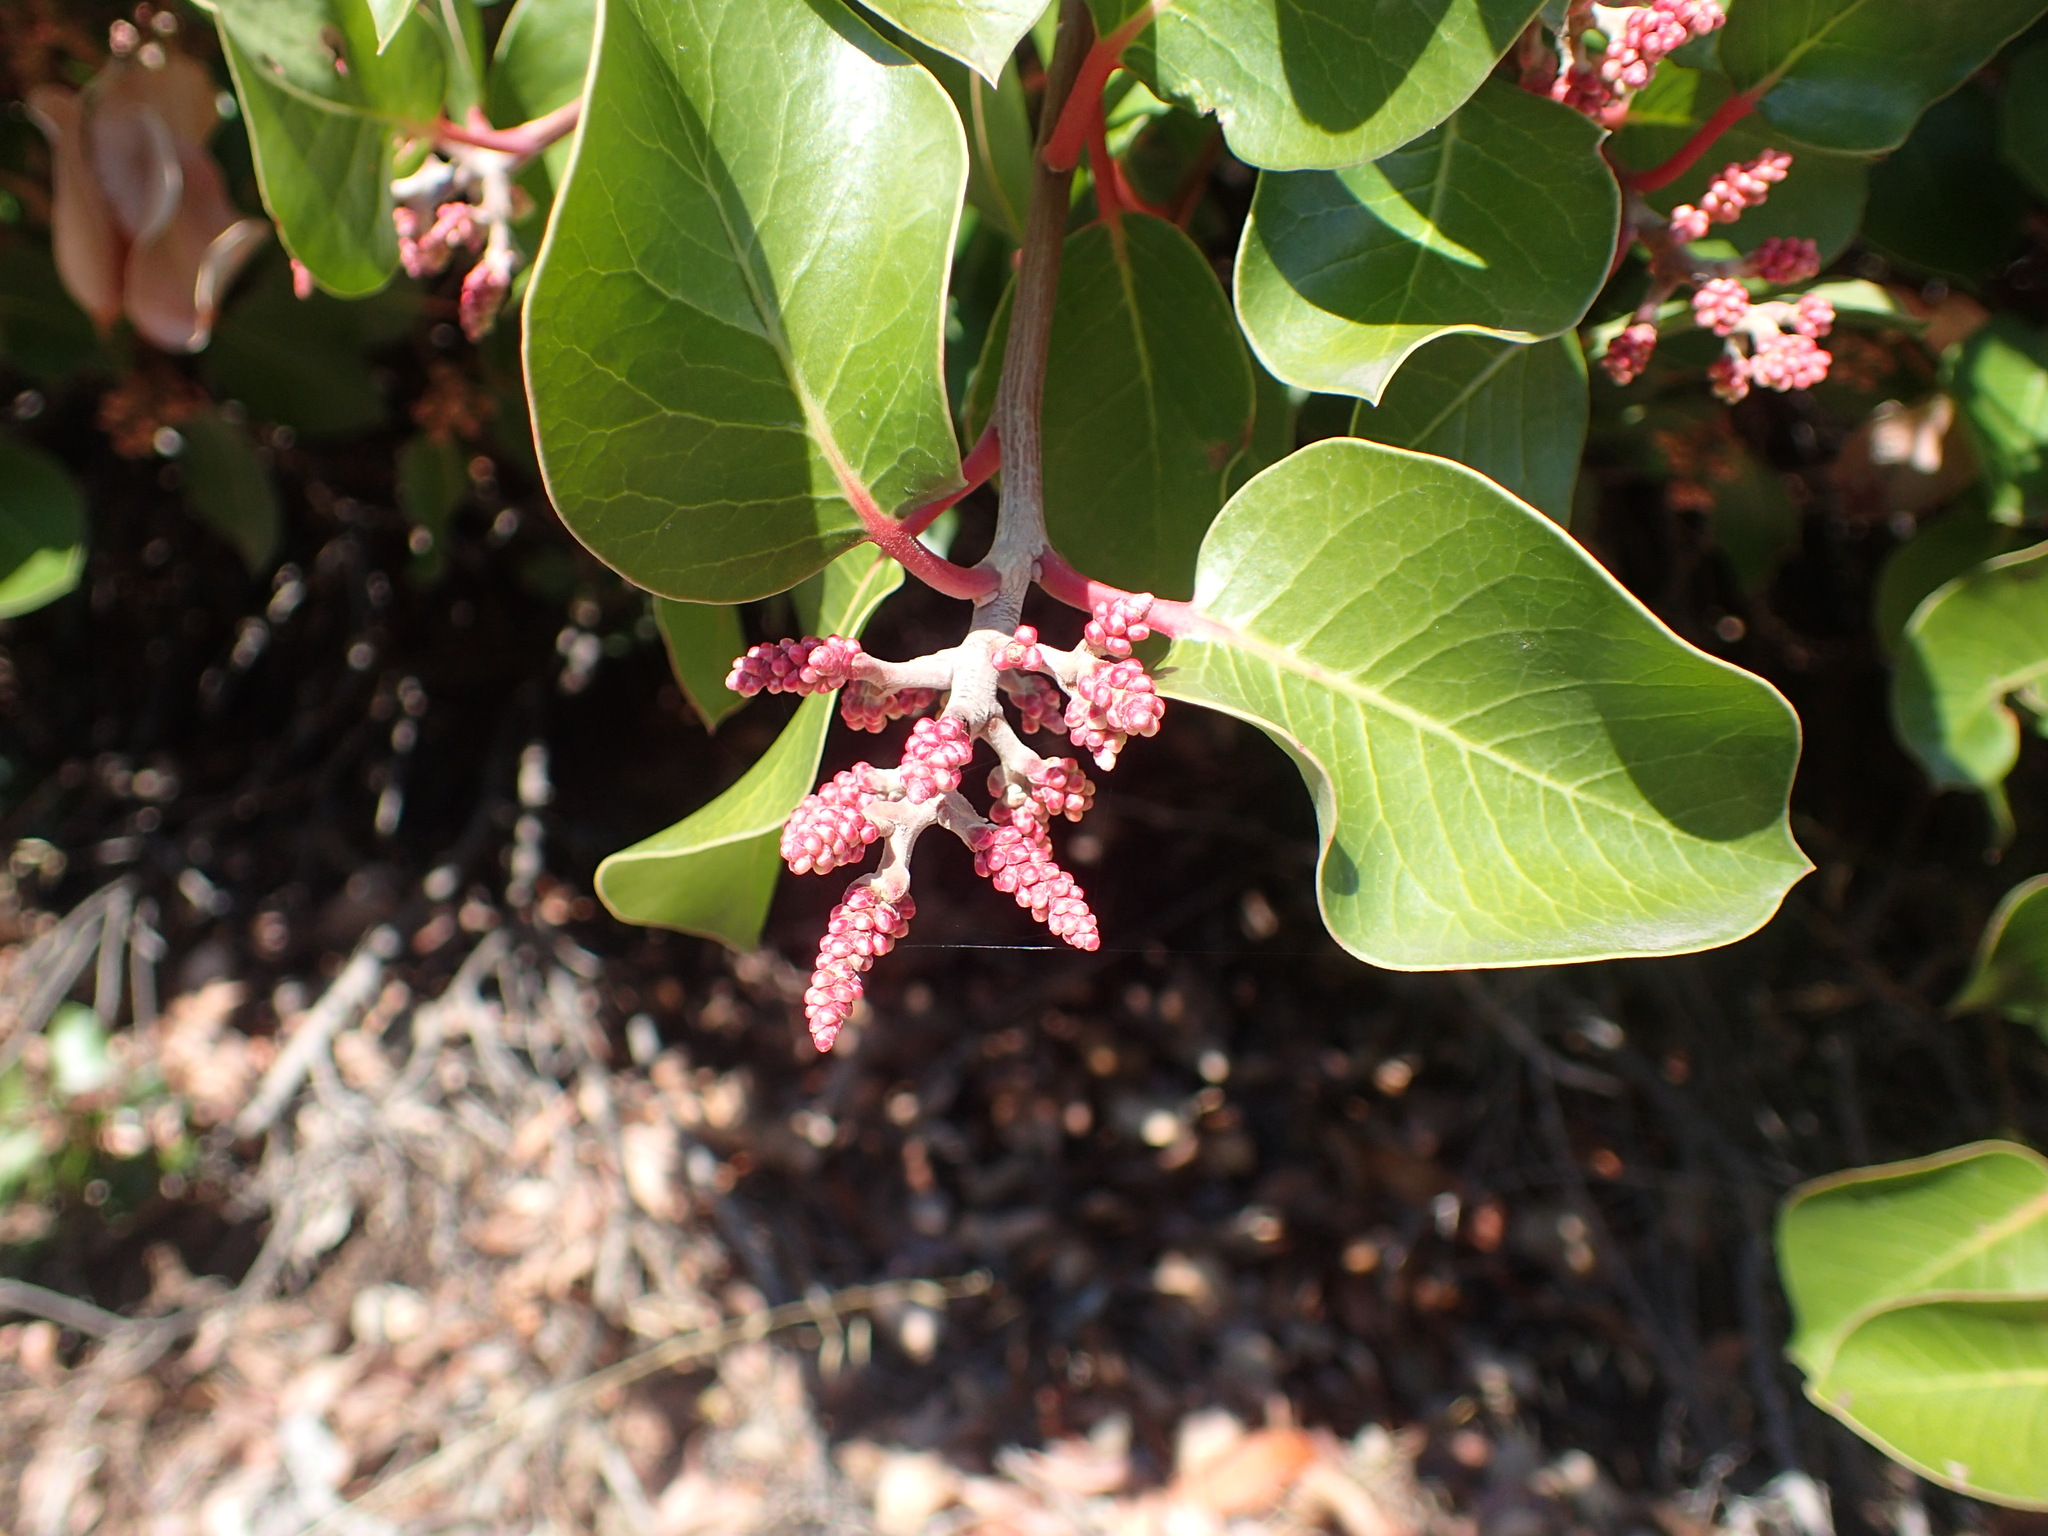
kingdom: Plantae
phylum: Tracheophyta
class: Magnoliopsida
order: Sapindales
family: Anacardiaceae
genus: Rhus
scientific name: Rhus ovata
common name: Sugar sumac
